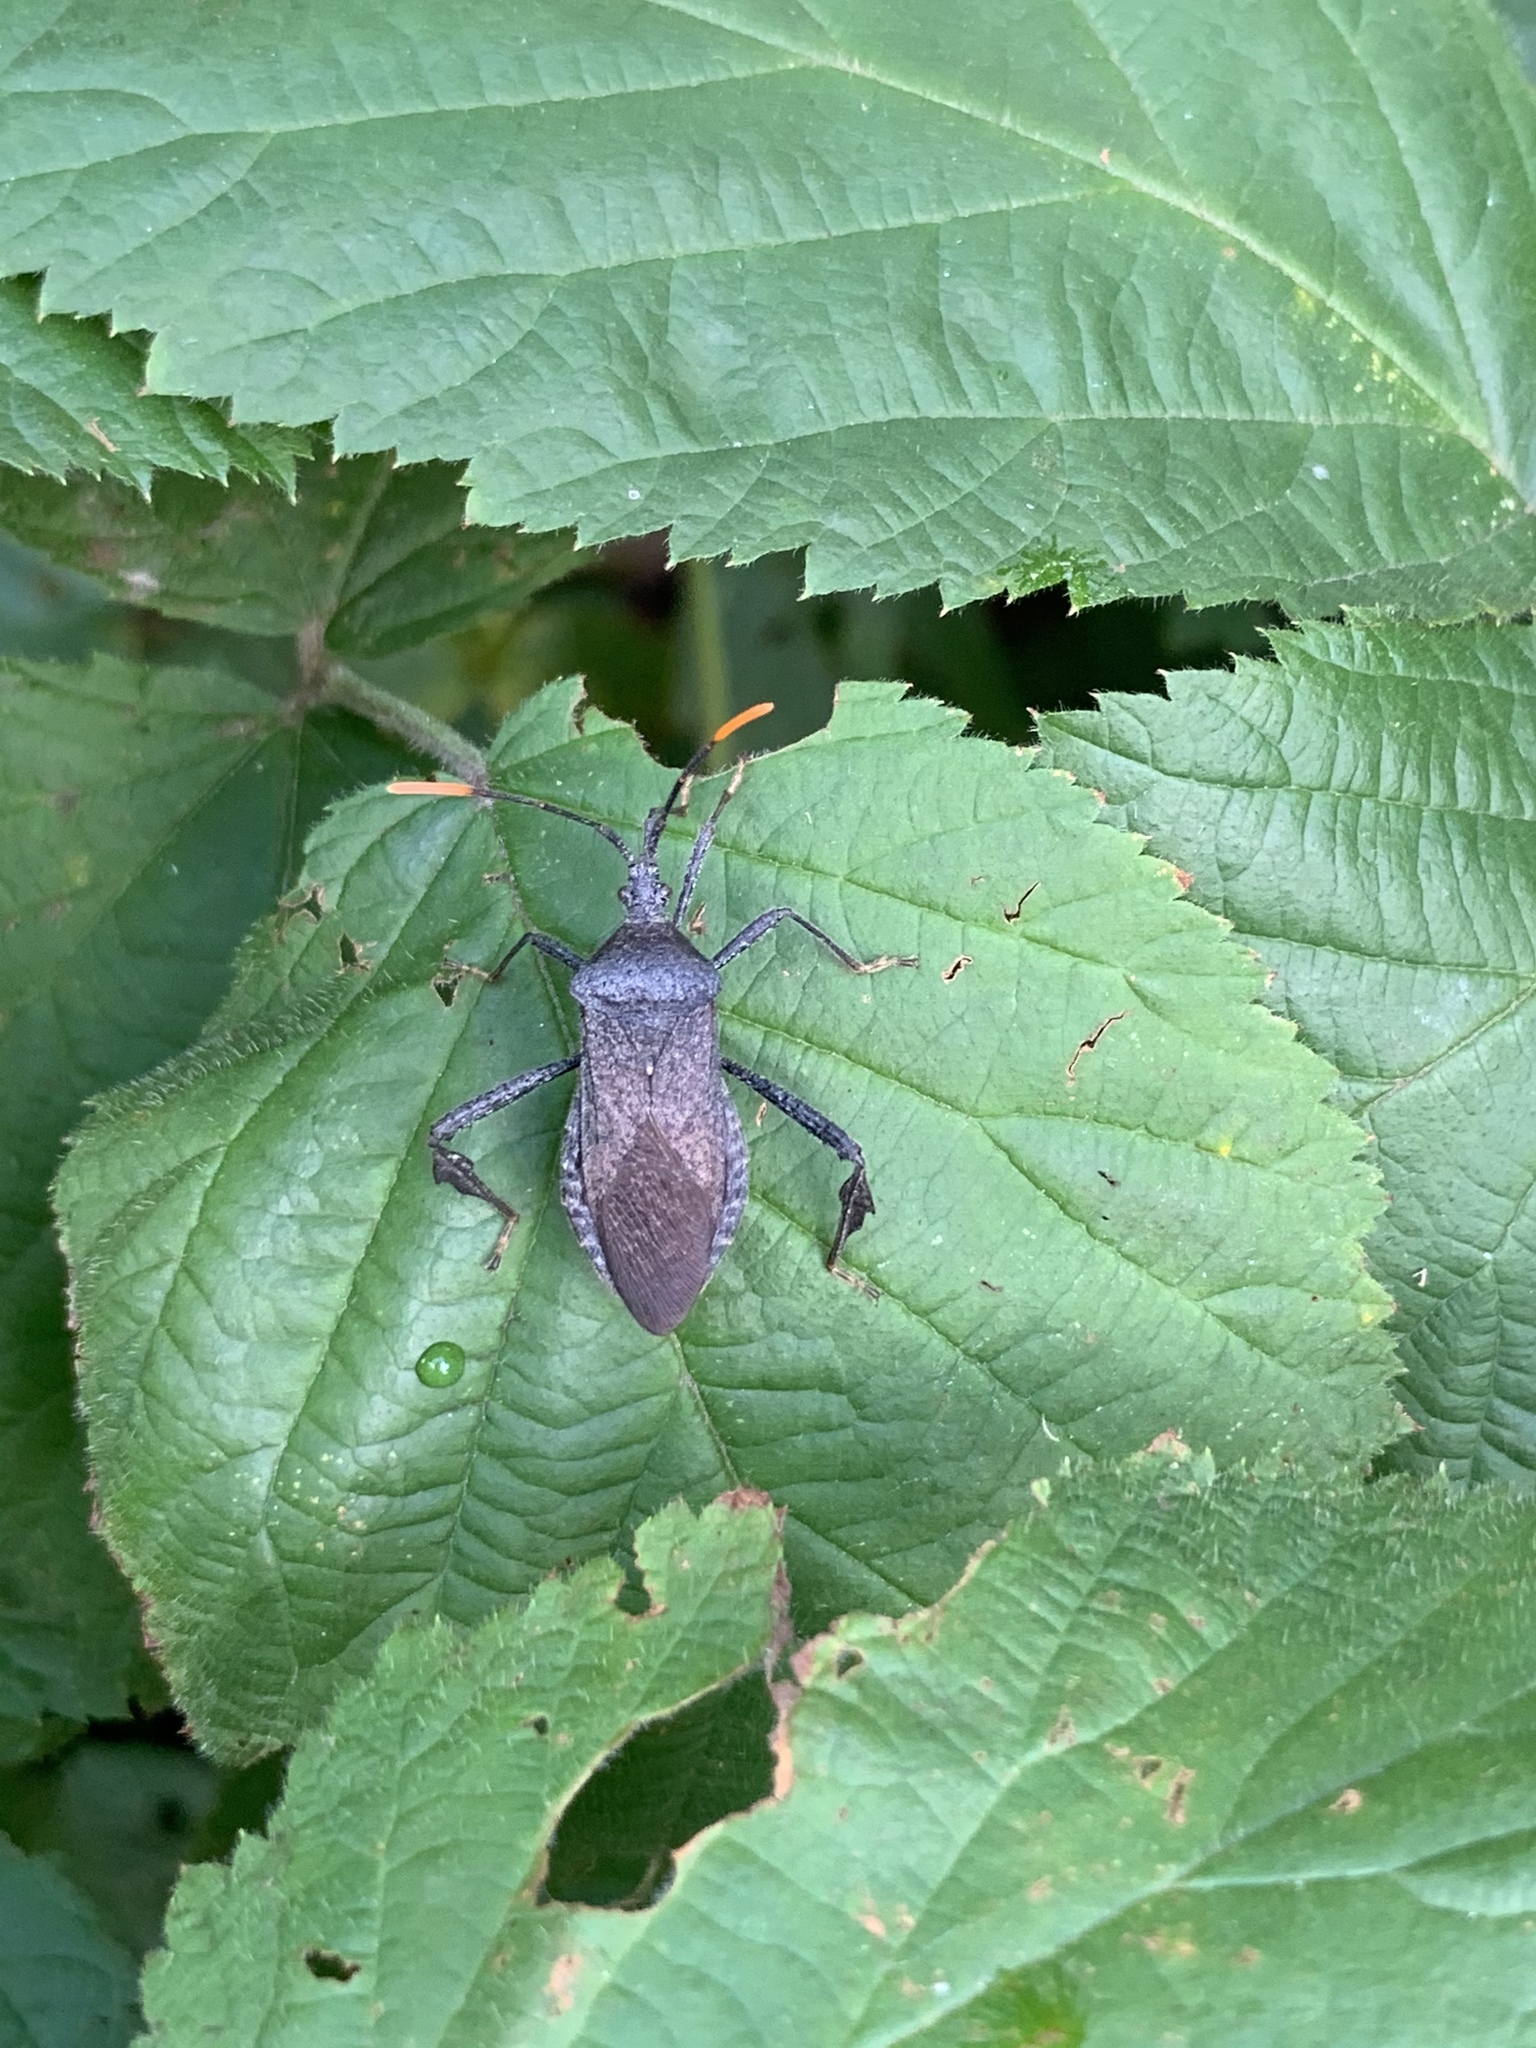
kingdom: Animalia
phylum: Arthropoda
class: Insecta
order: Hemiptera
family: Coreidae
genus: Acanthocephala
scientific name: Acanthocephala terminalis
